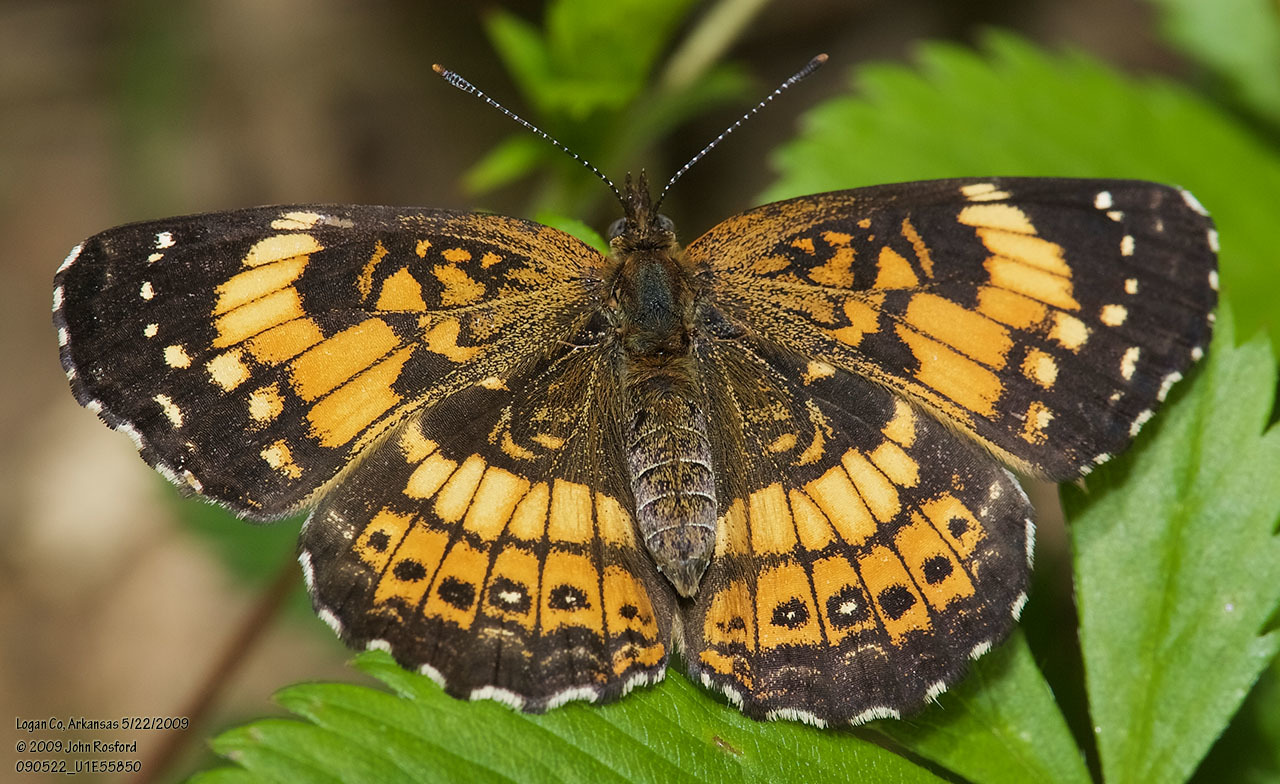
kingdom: Animalia
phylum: Arthropoda
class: Insecta
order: Lepidoptera
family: Nymphalidae
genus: Chlosyne
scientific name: Chlosyne nycteis
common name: Silvery checkerspot
